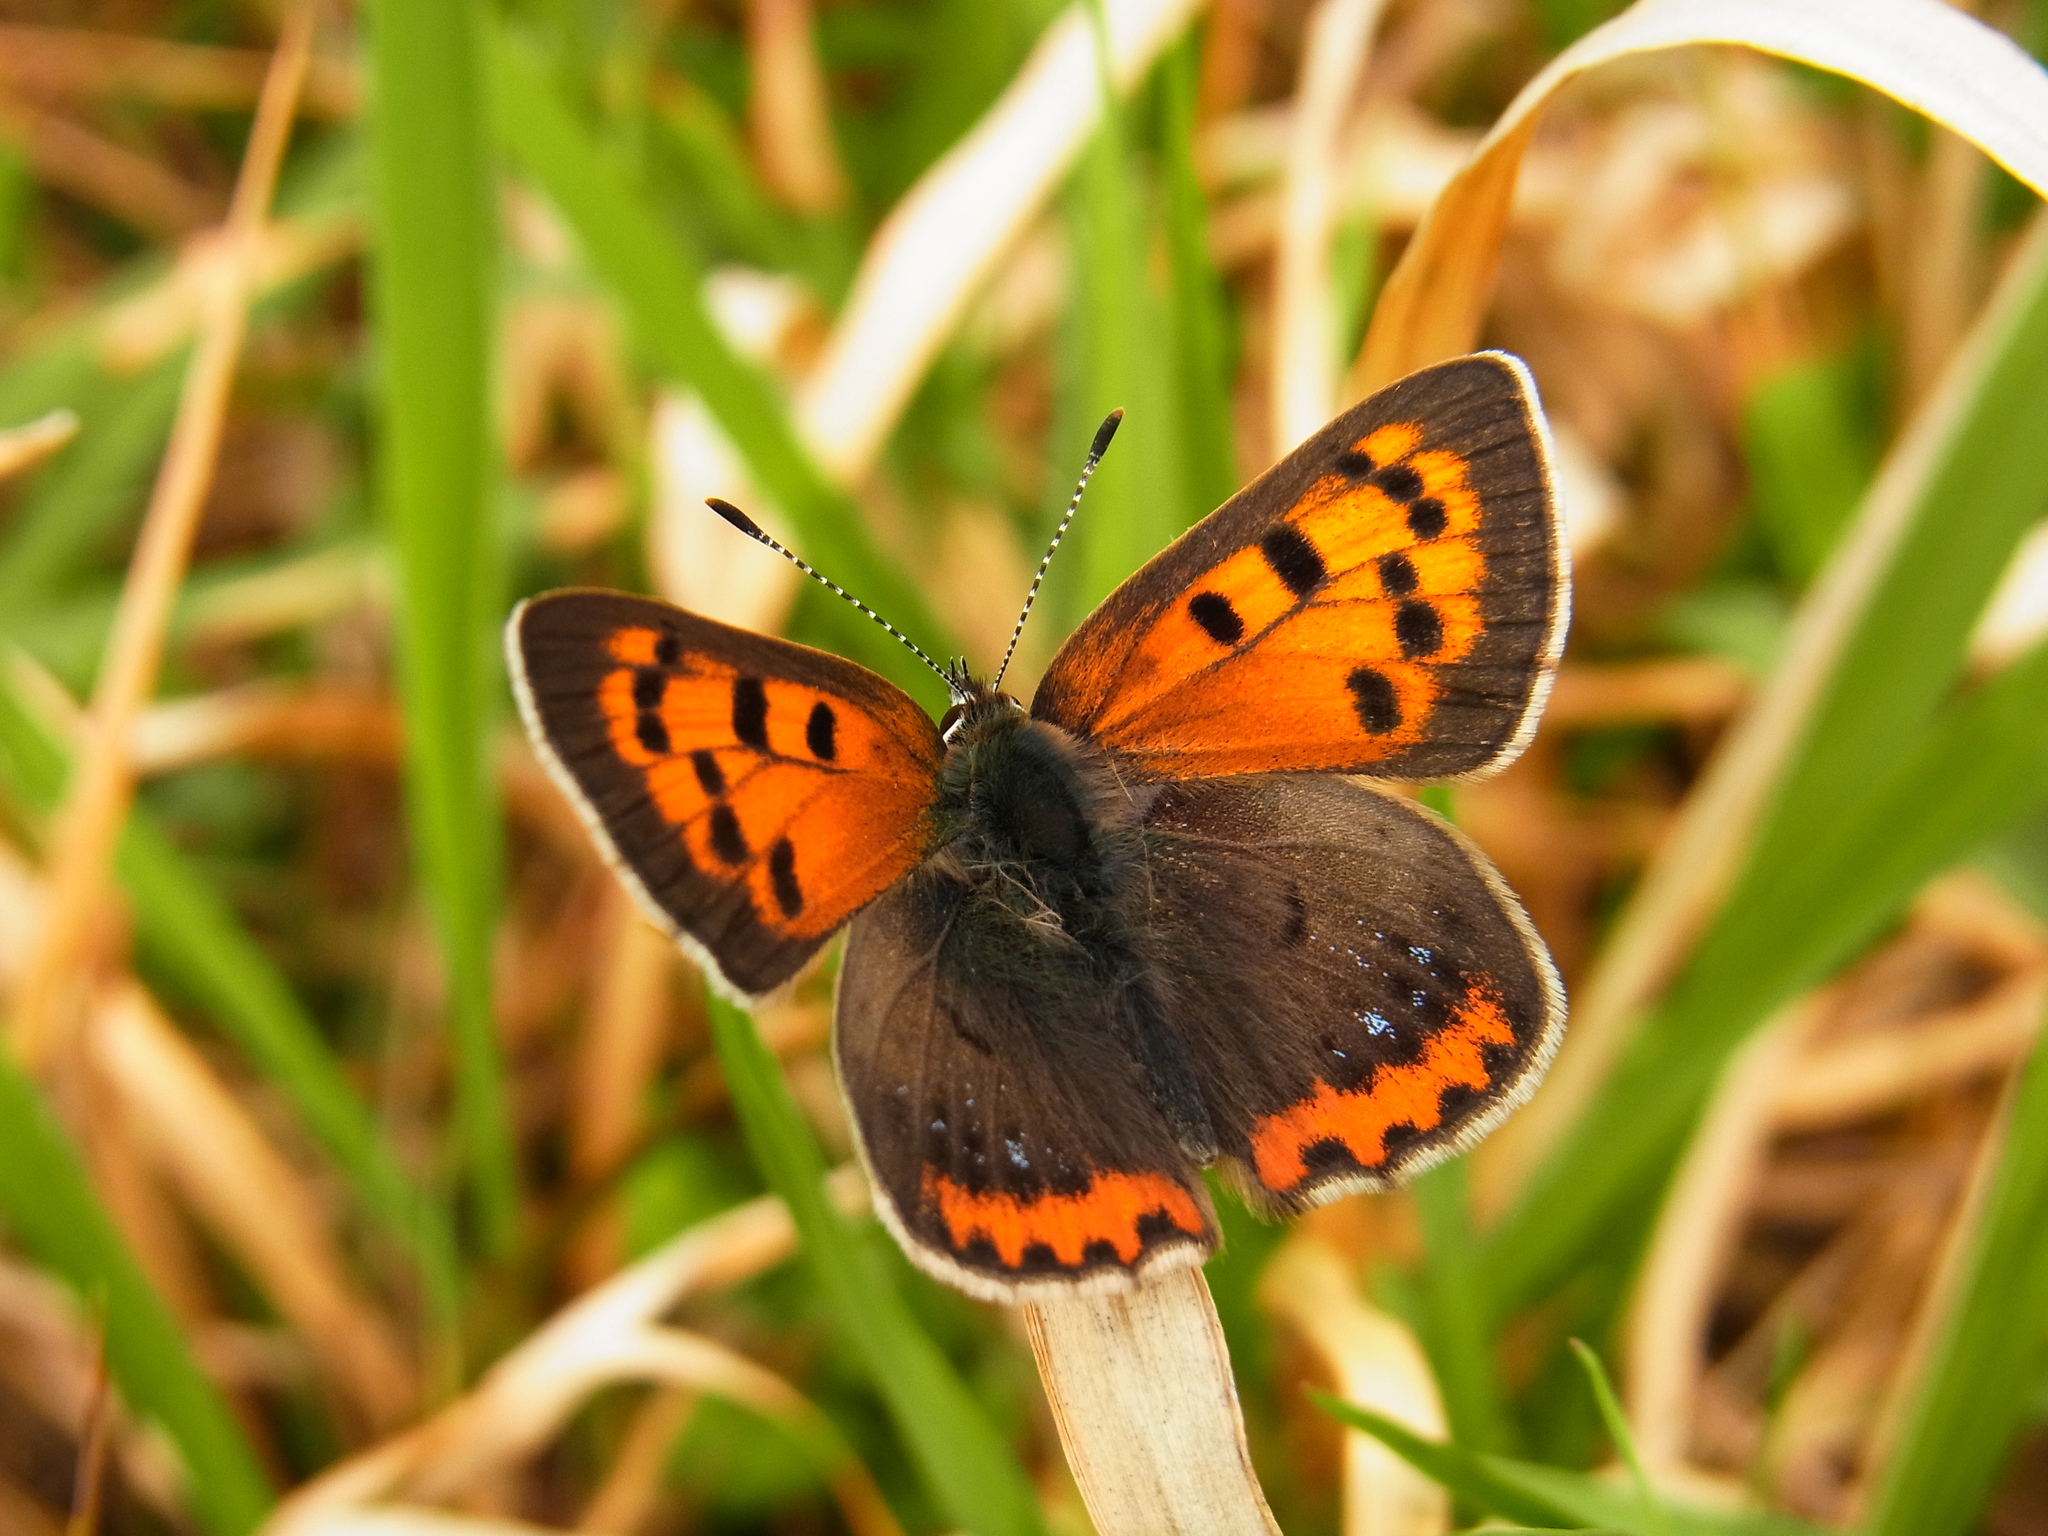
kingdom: Animalia
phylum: Arthropoda
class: Insecta
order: Lepidoptera
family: Lycaenidae
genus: Lycaena
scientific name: Lycaena phlaeas
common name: Small copper
